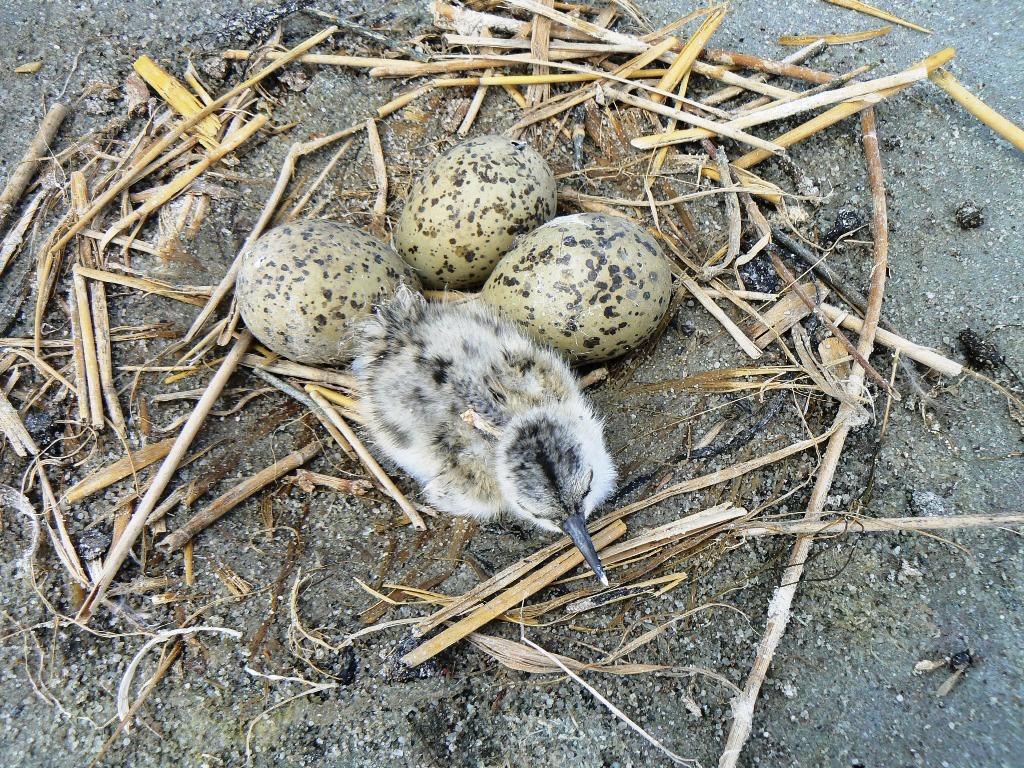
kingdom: Animalia
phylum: Chordata
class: Aves
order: Charadriiformes
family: Recurvirostridae
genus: Recurvirostra
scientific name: Recurvirostra avosetta
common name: Pied avocet
